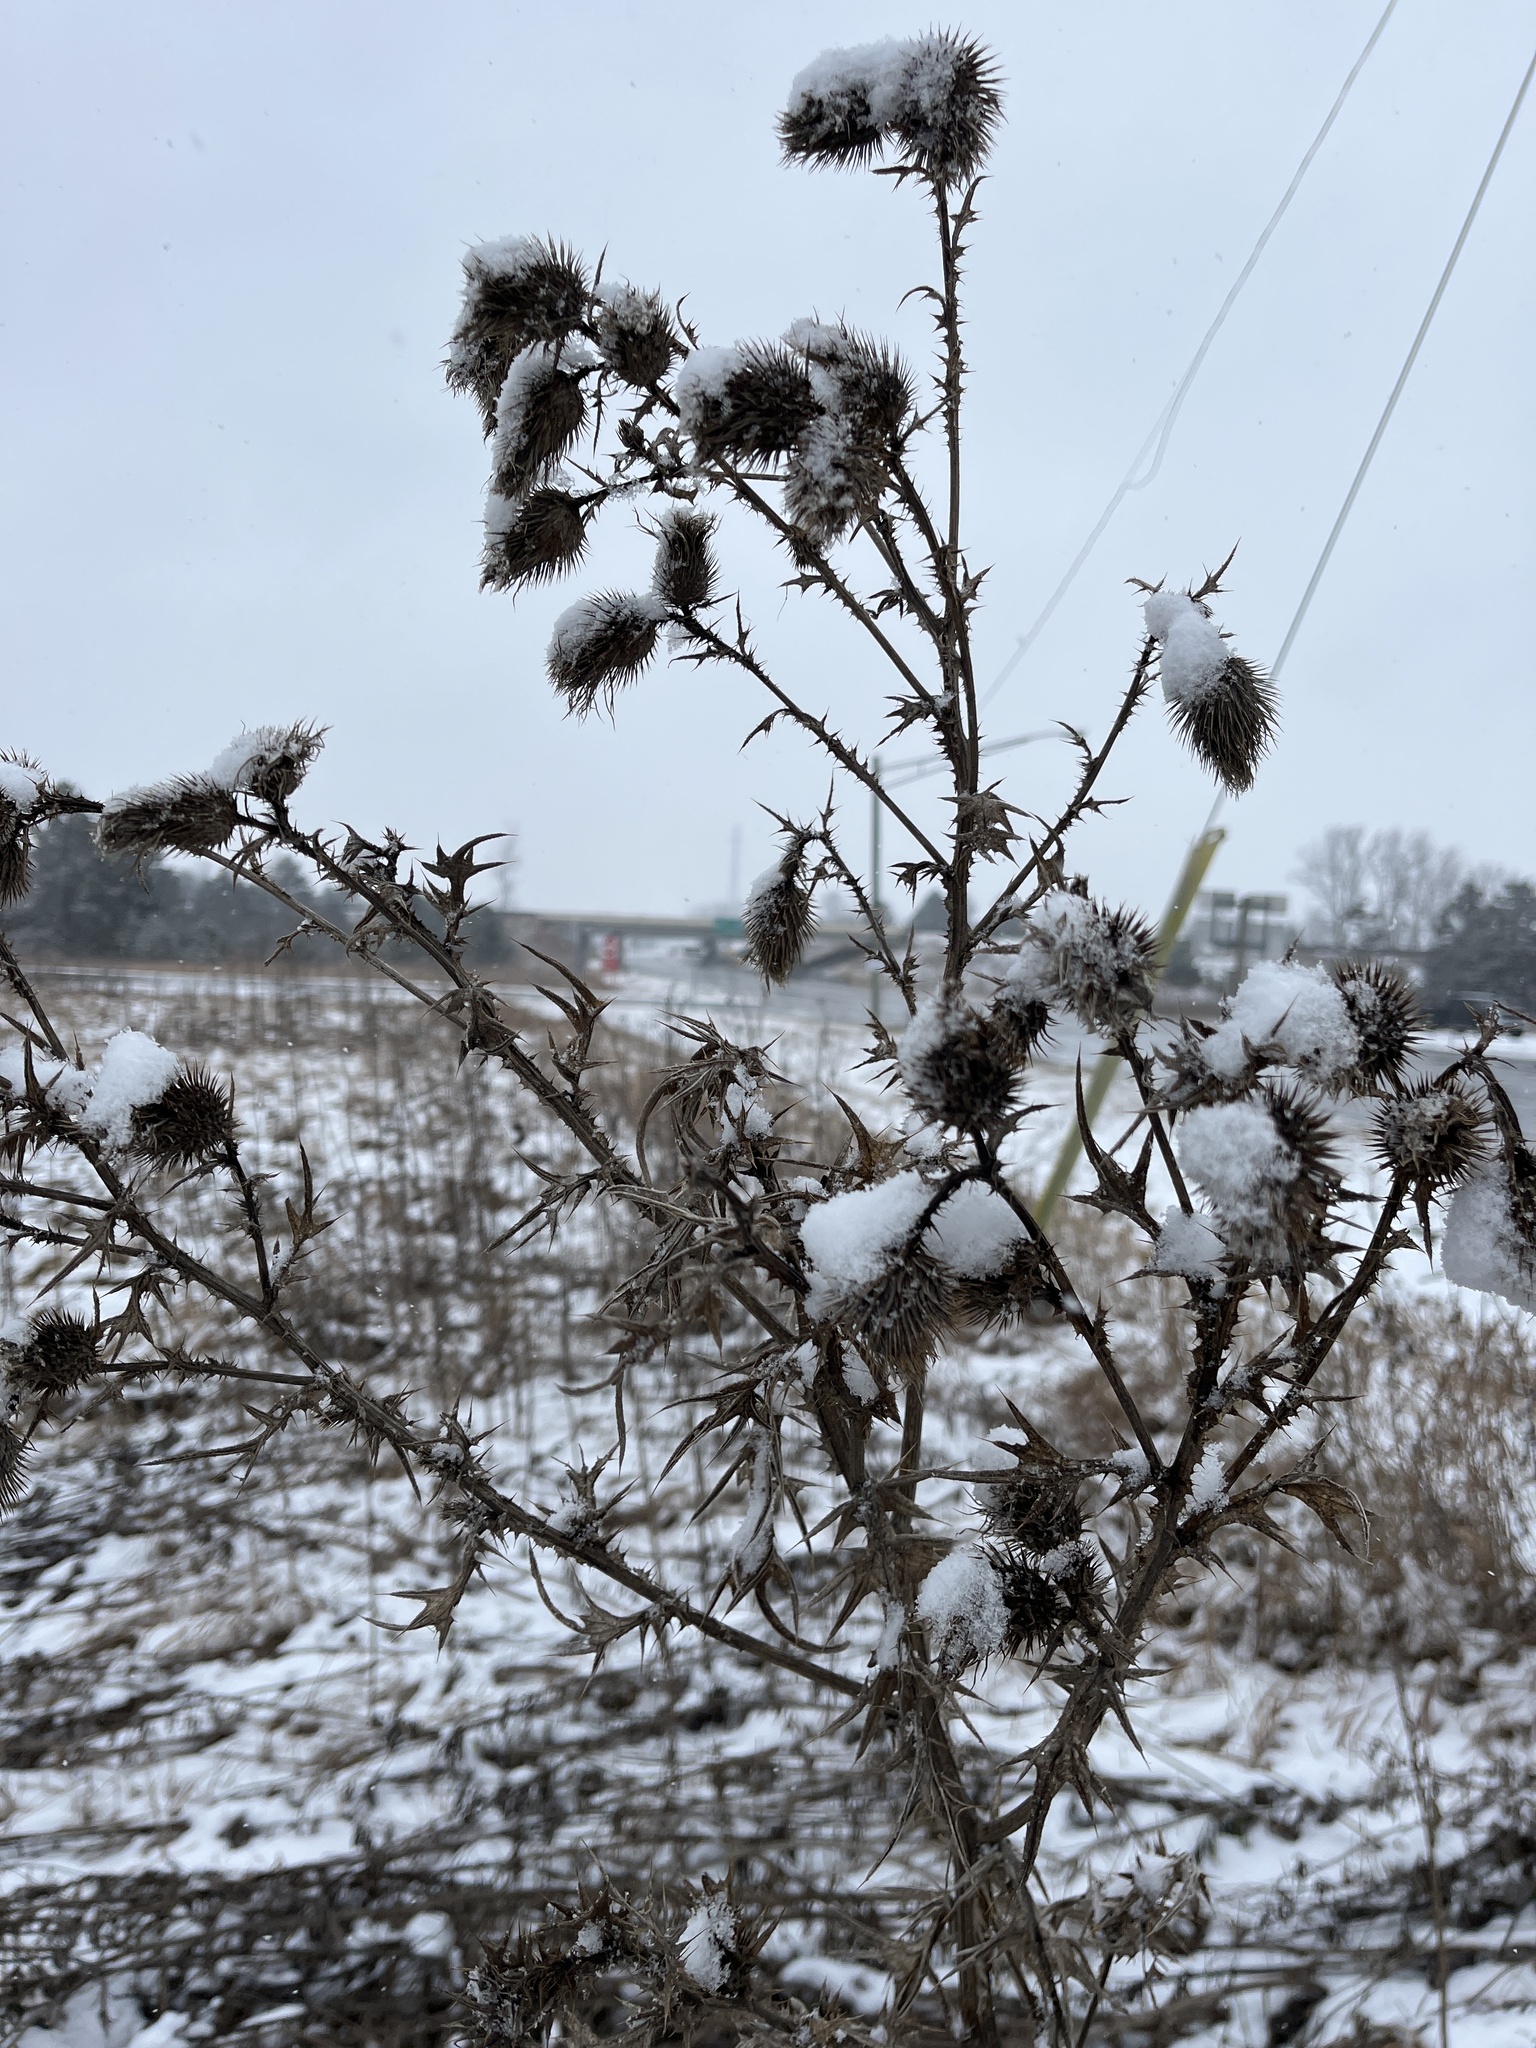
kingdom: Plantae
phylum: Tracheophyta
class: Magnoliopsida
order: Asterales
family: Asteraceae
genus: Cirsium
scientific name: Cirsium vulgare
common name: Bull thistle
